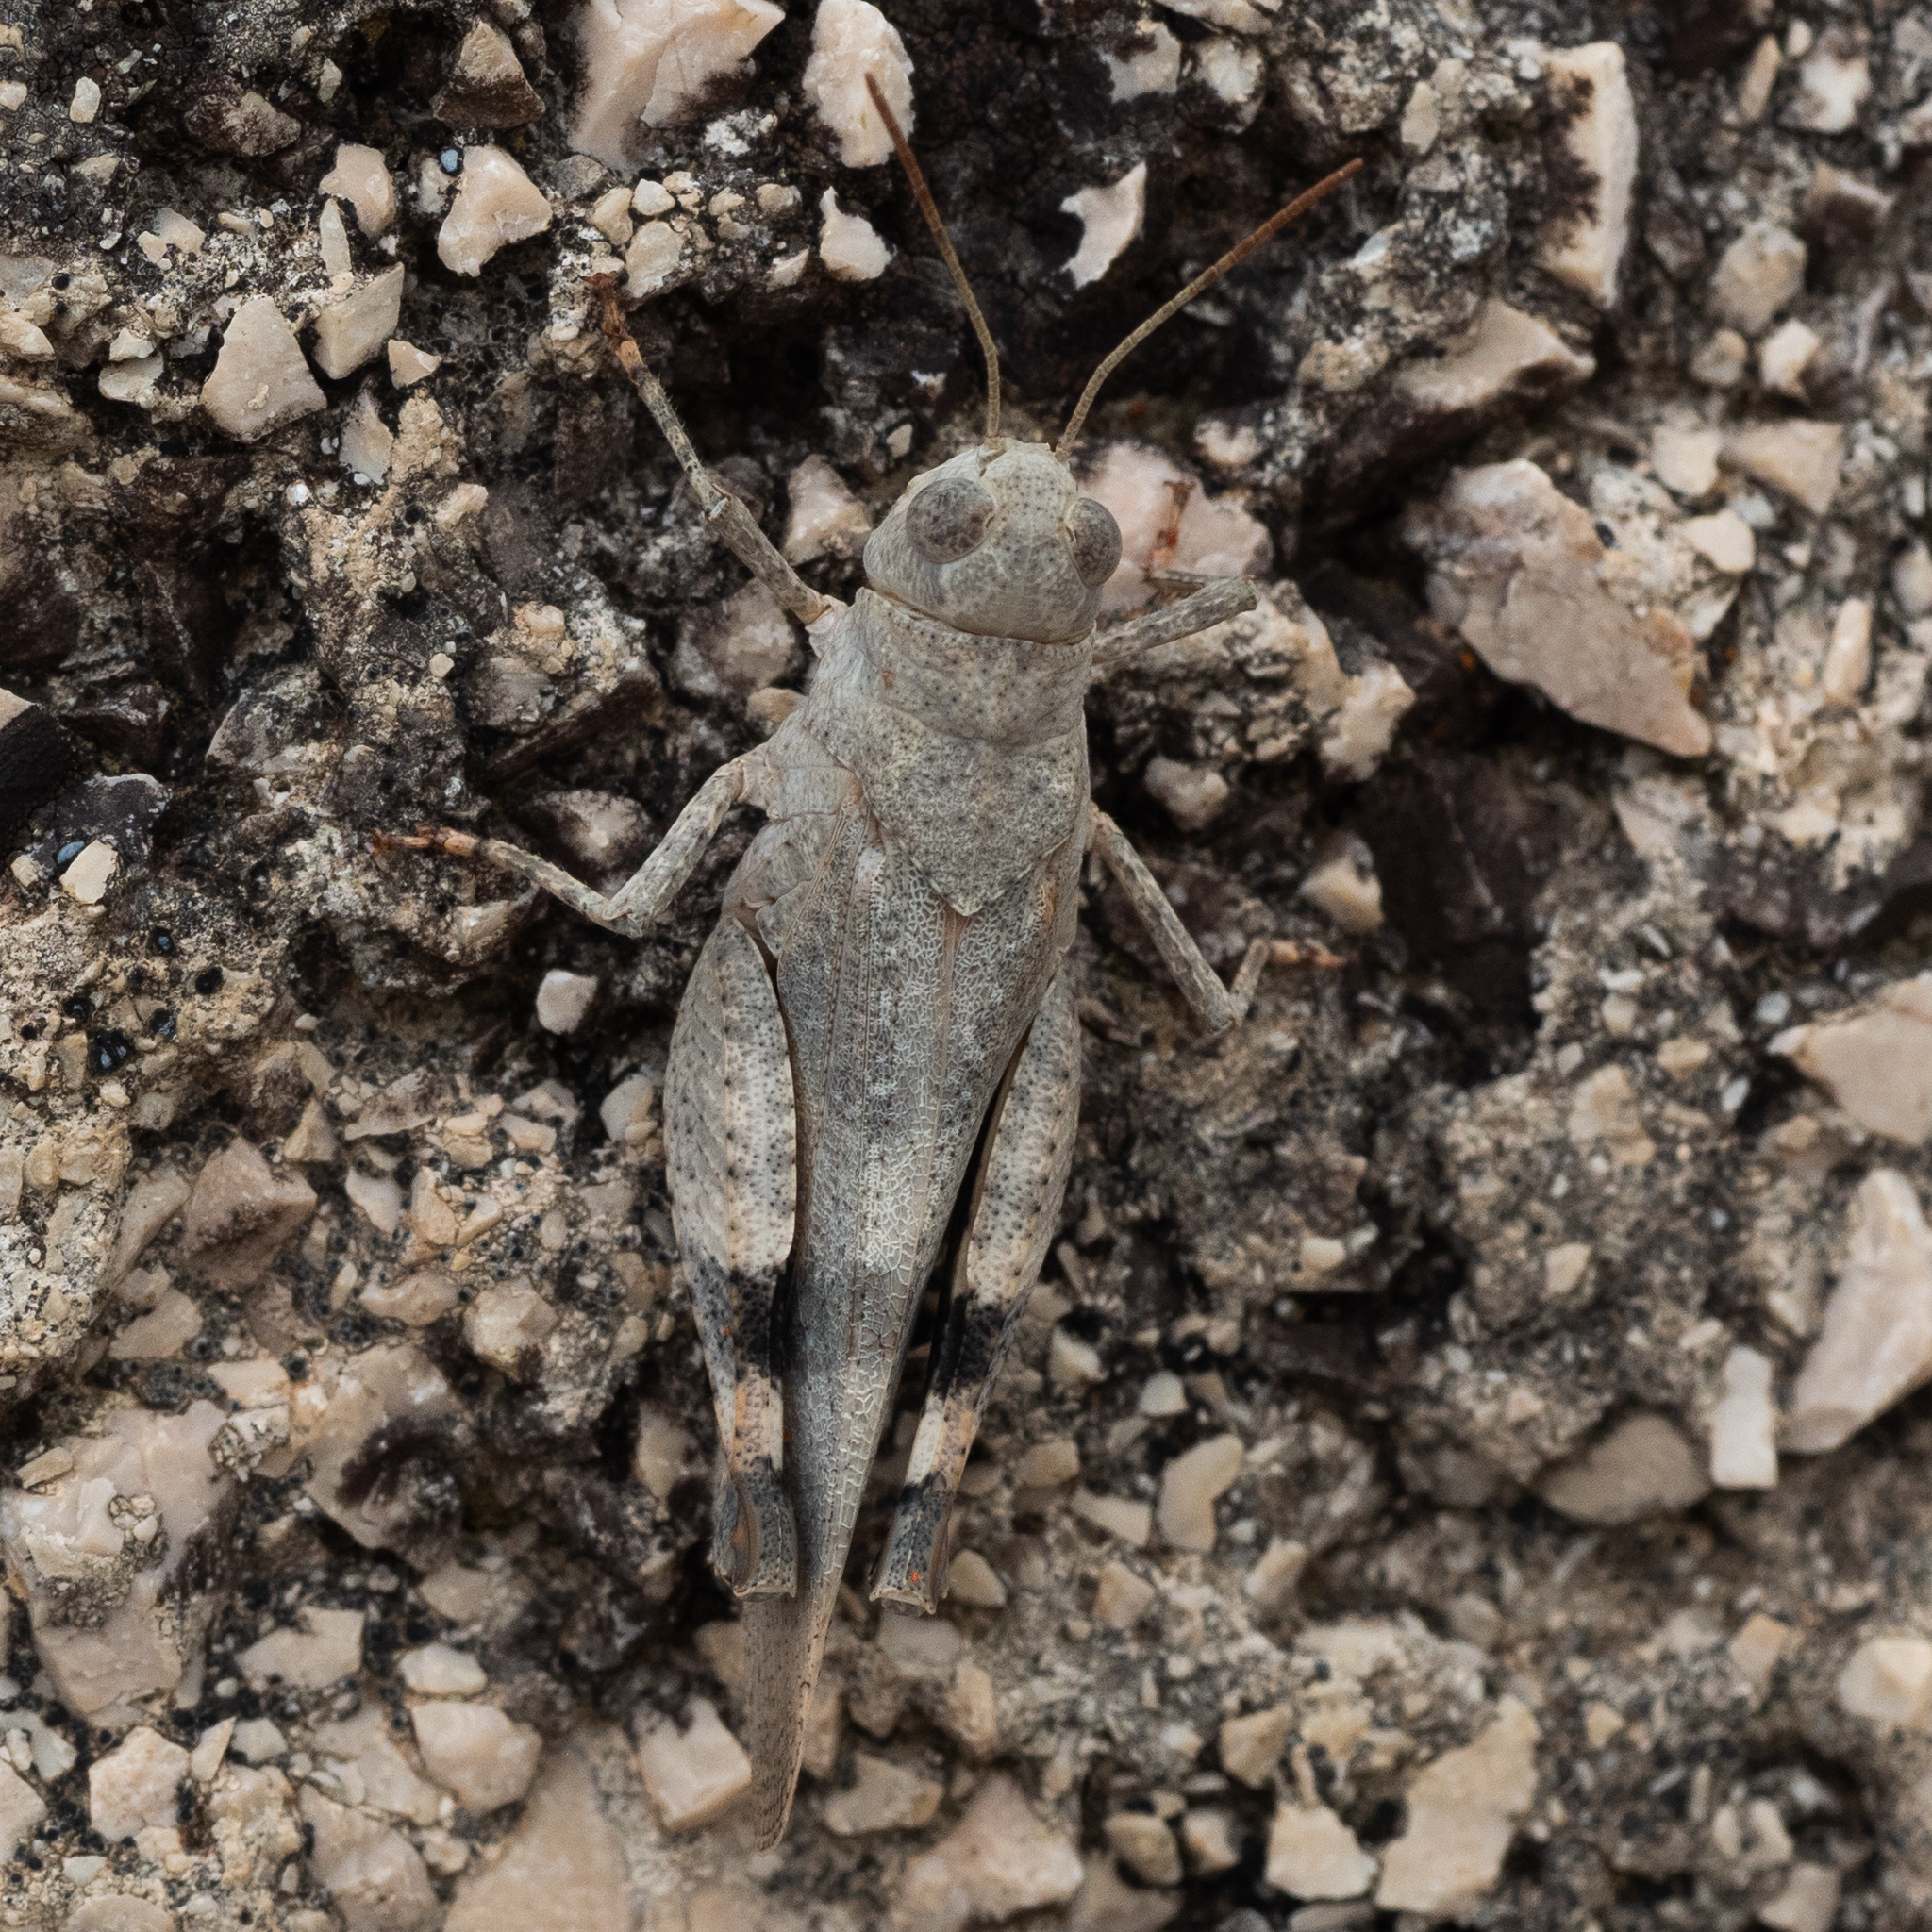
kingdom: Animalia
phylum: Arthropoda
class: Insecta
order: Orthoptera
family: Acrididae
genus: Oedipoda
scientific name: Oedipoda germanica
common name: Red band-winged grasshopper
